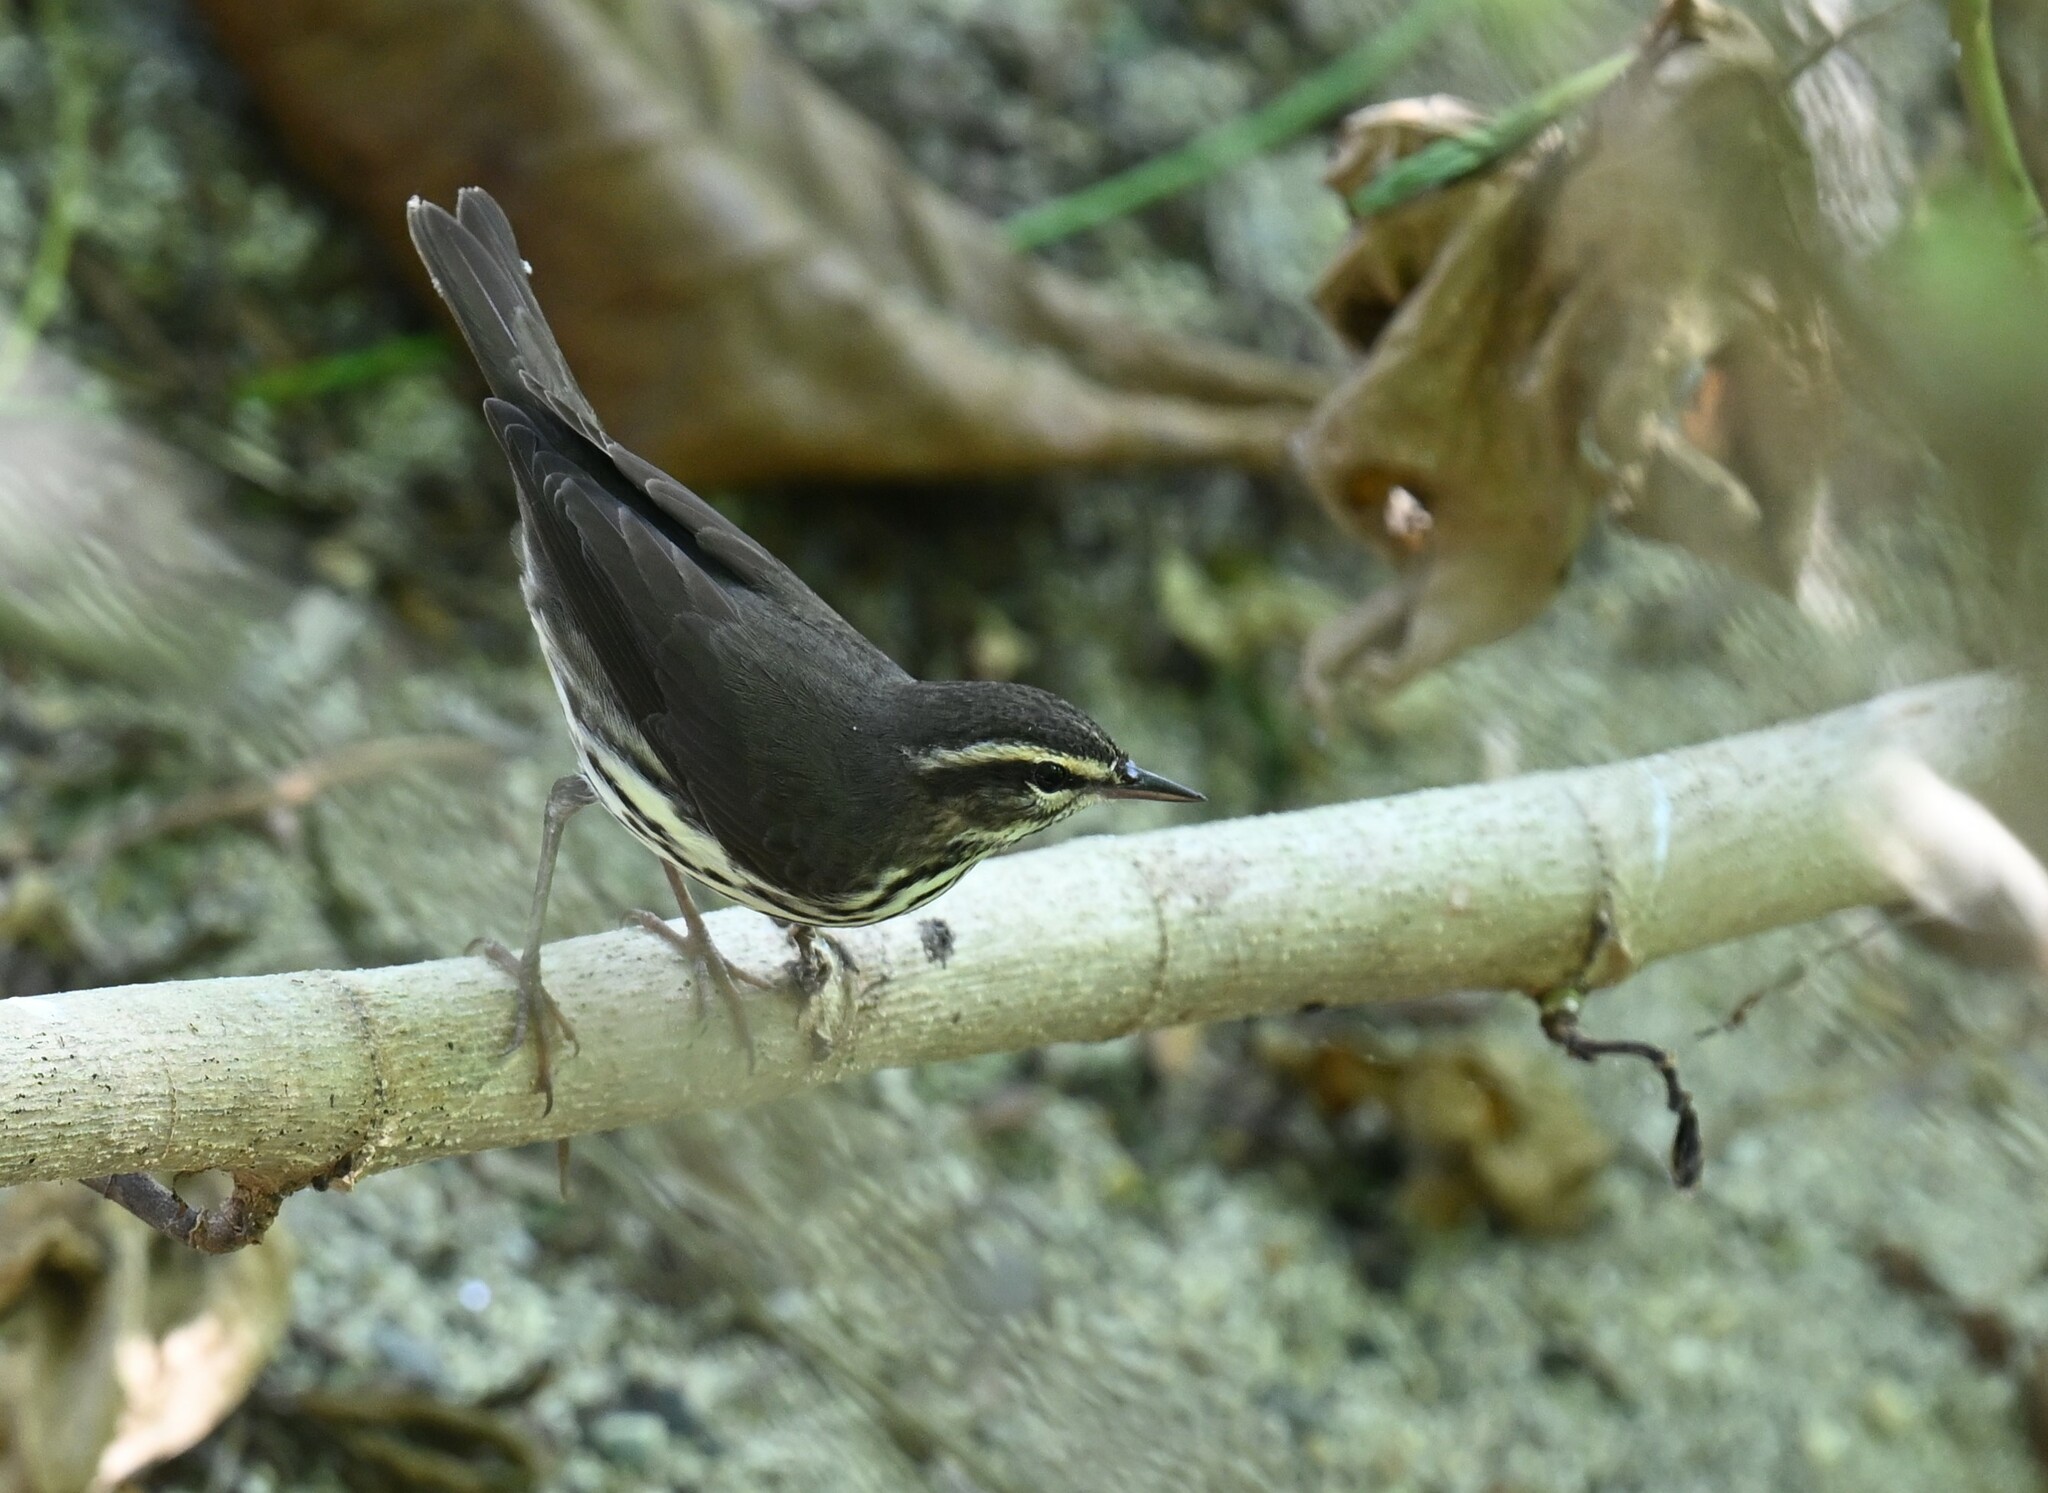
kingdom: Animalia
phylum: Chordata
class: Aves
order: Passeriformes
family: Parulidae
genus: Parkesia
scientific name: Parkesia noveboracensis
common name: Northern waterthrush
